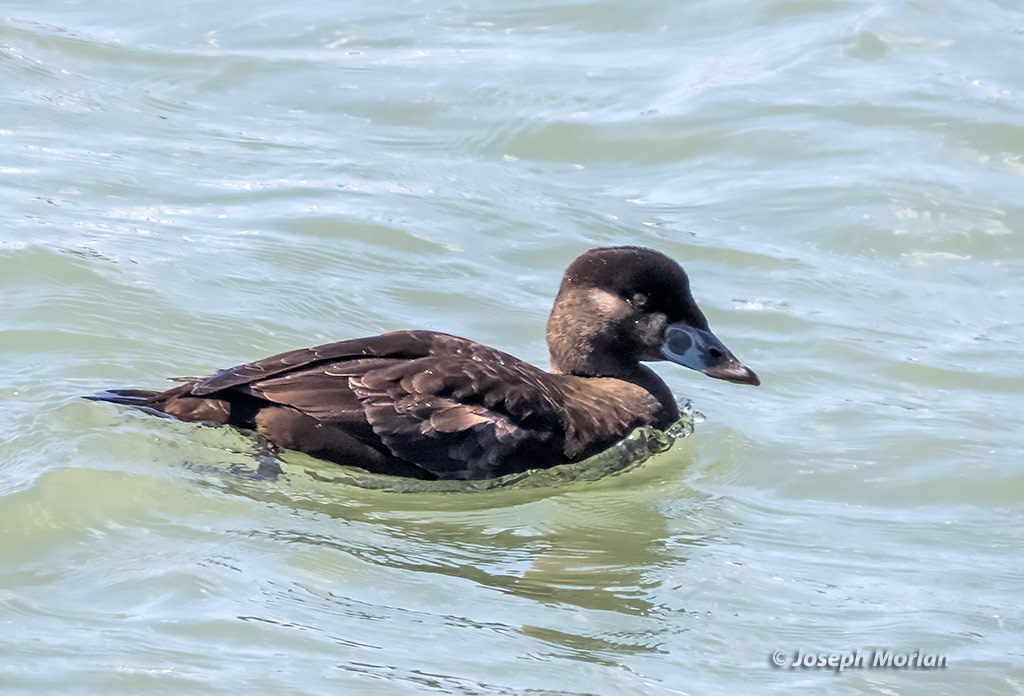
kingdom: Animalia
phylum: Chordata
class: Aves
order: Anseriformes
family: Anatidae
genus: Melanitta
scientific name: Melanitta perspicillata
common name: Surf scoter
